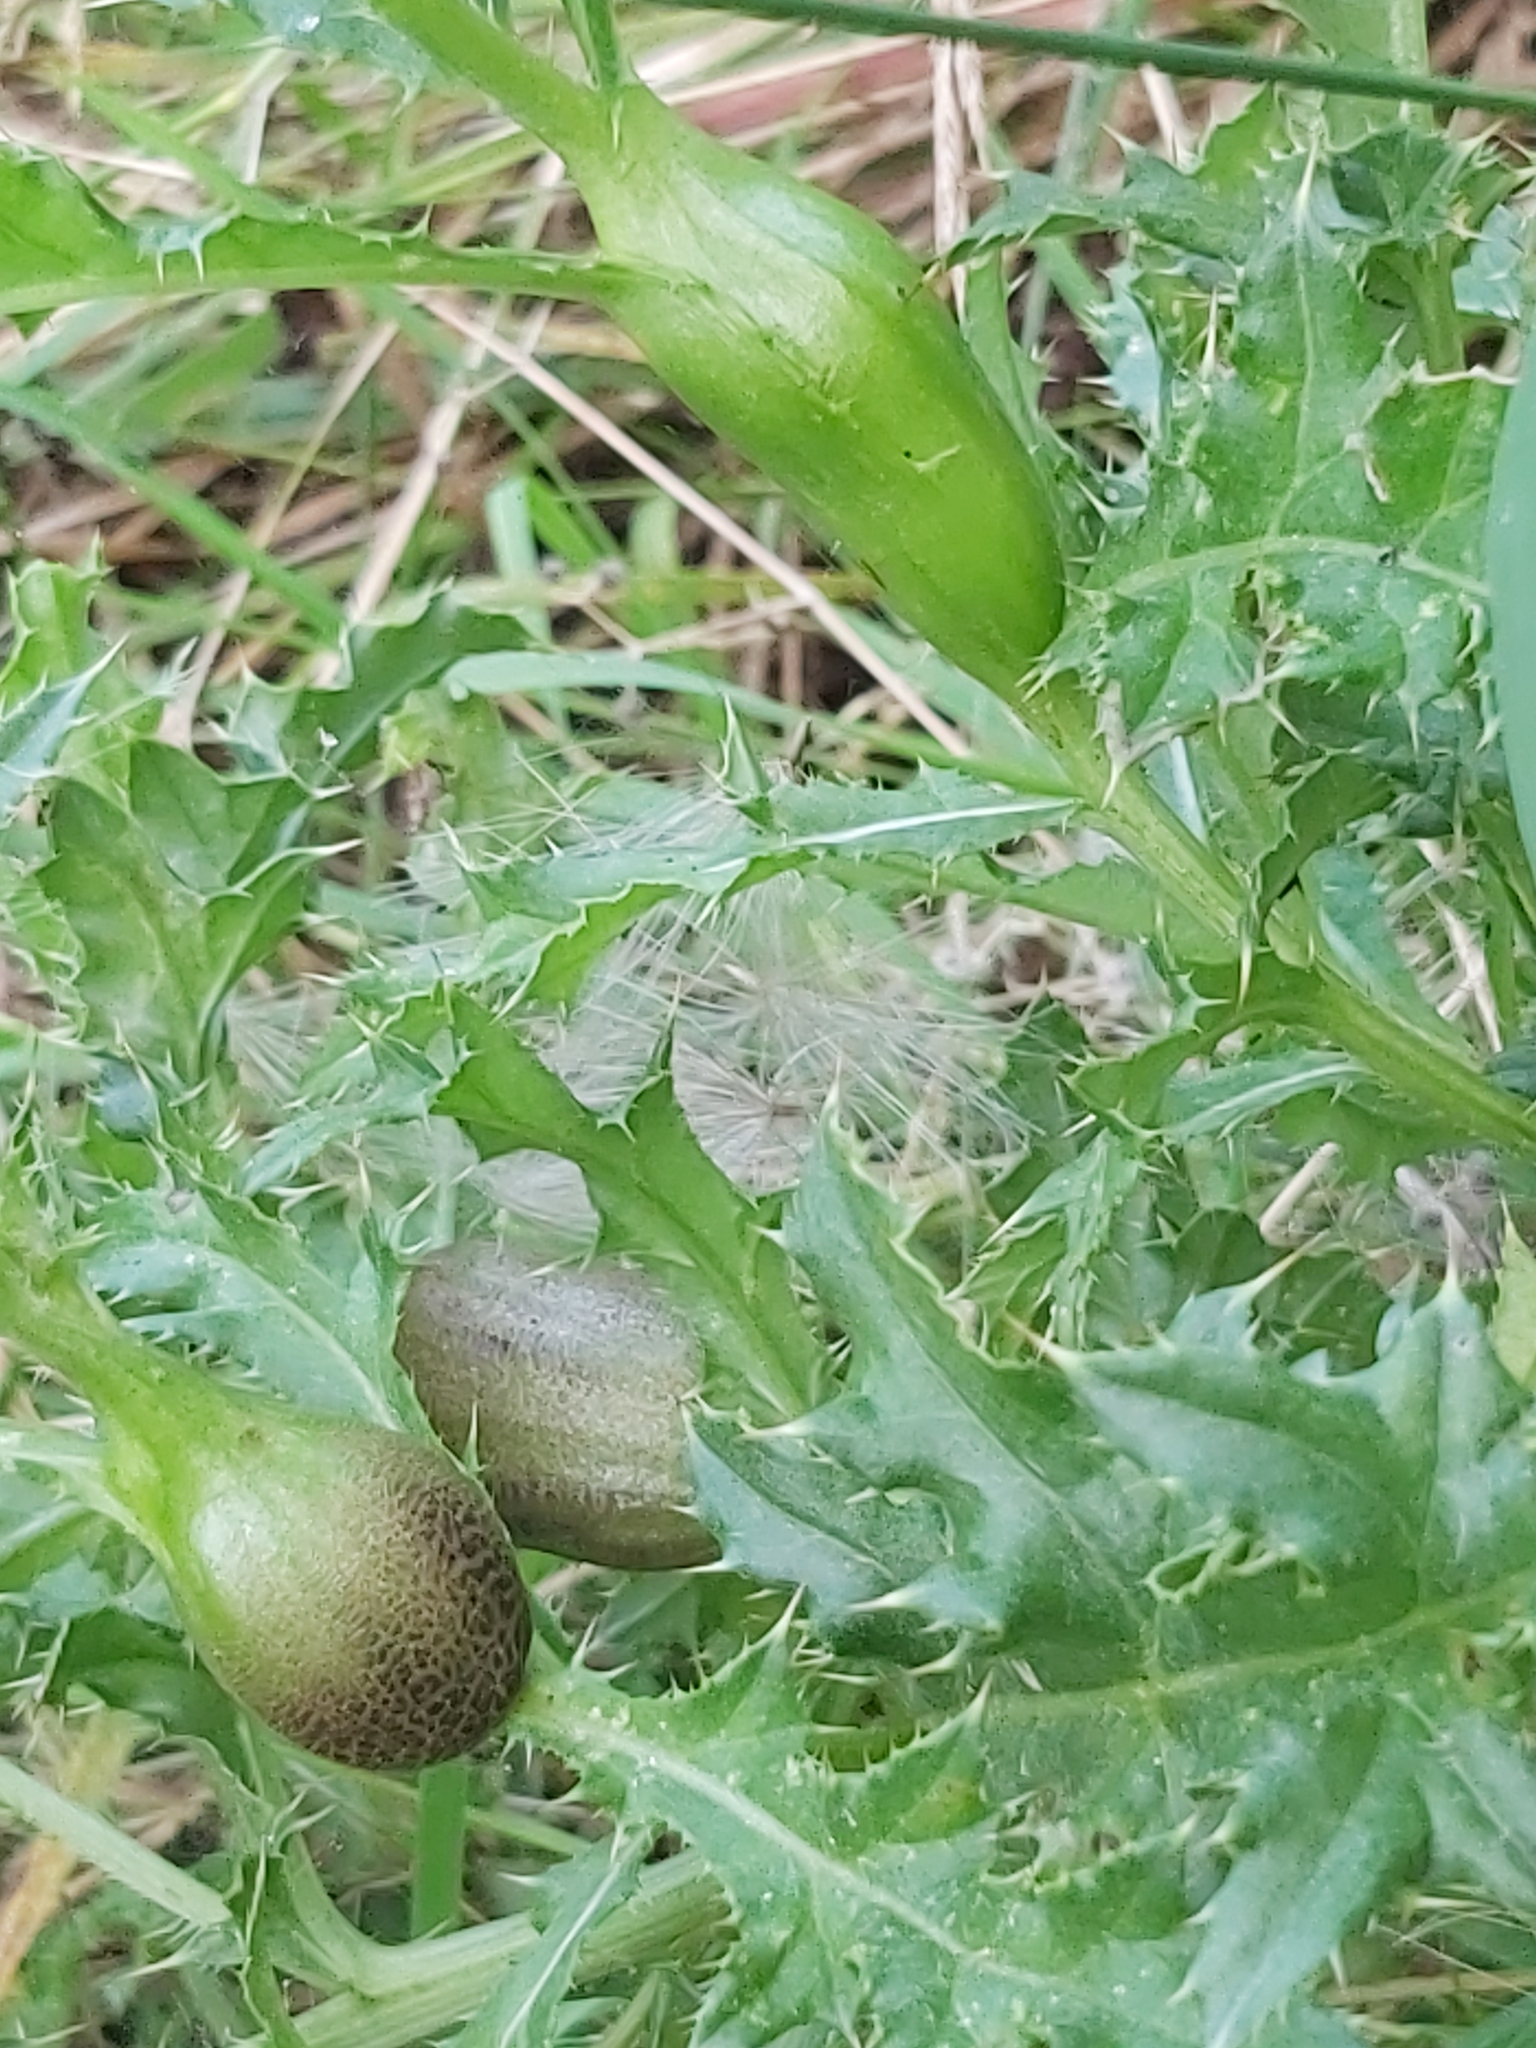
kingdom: Animalia
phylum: Arthropoda
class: Insecta
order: Diptera
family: Tephritidae
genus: Urophora
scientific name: Urophora cardui
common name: Fruit fly
